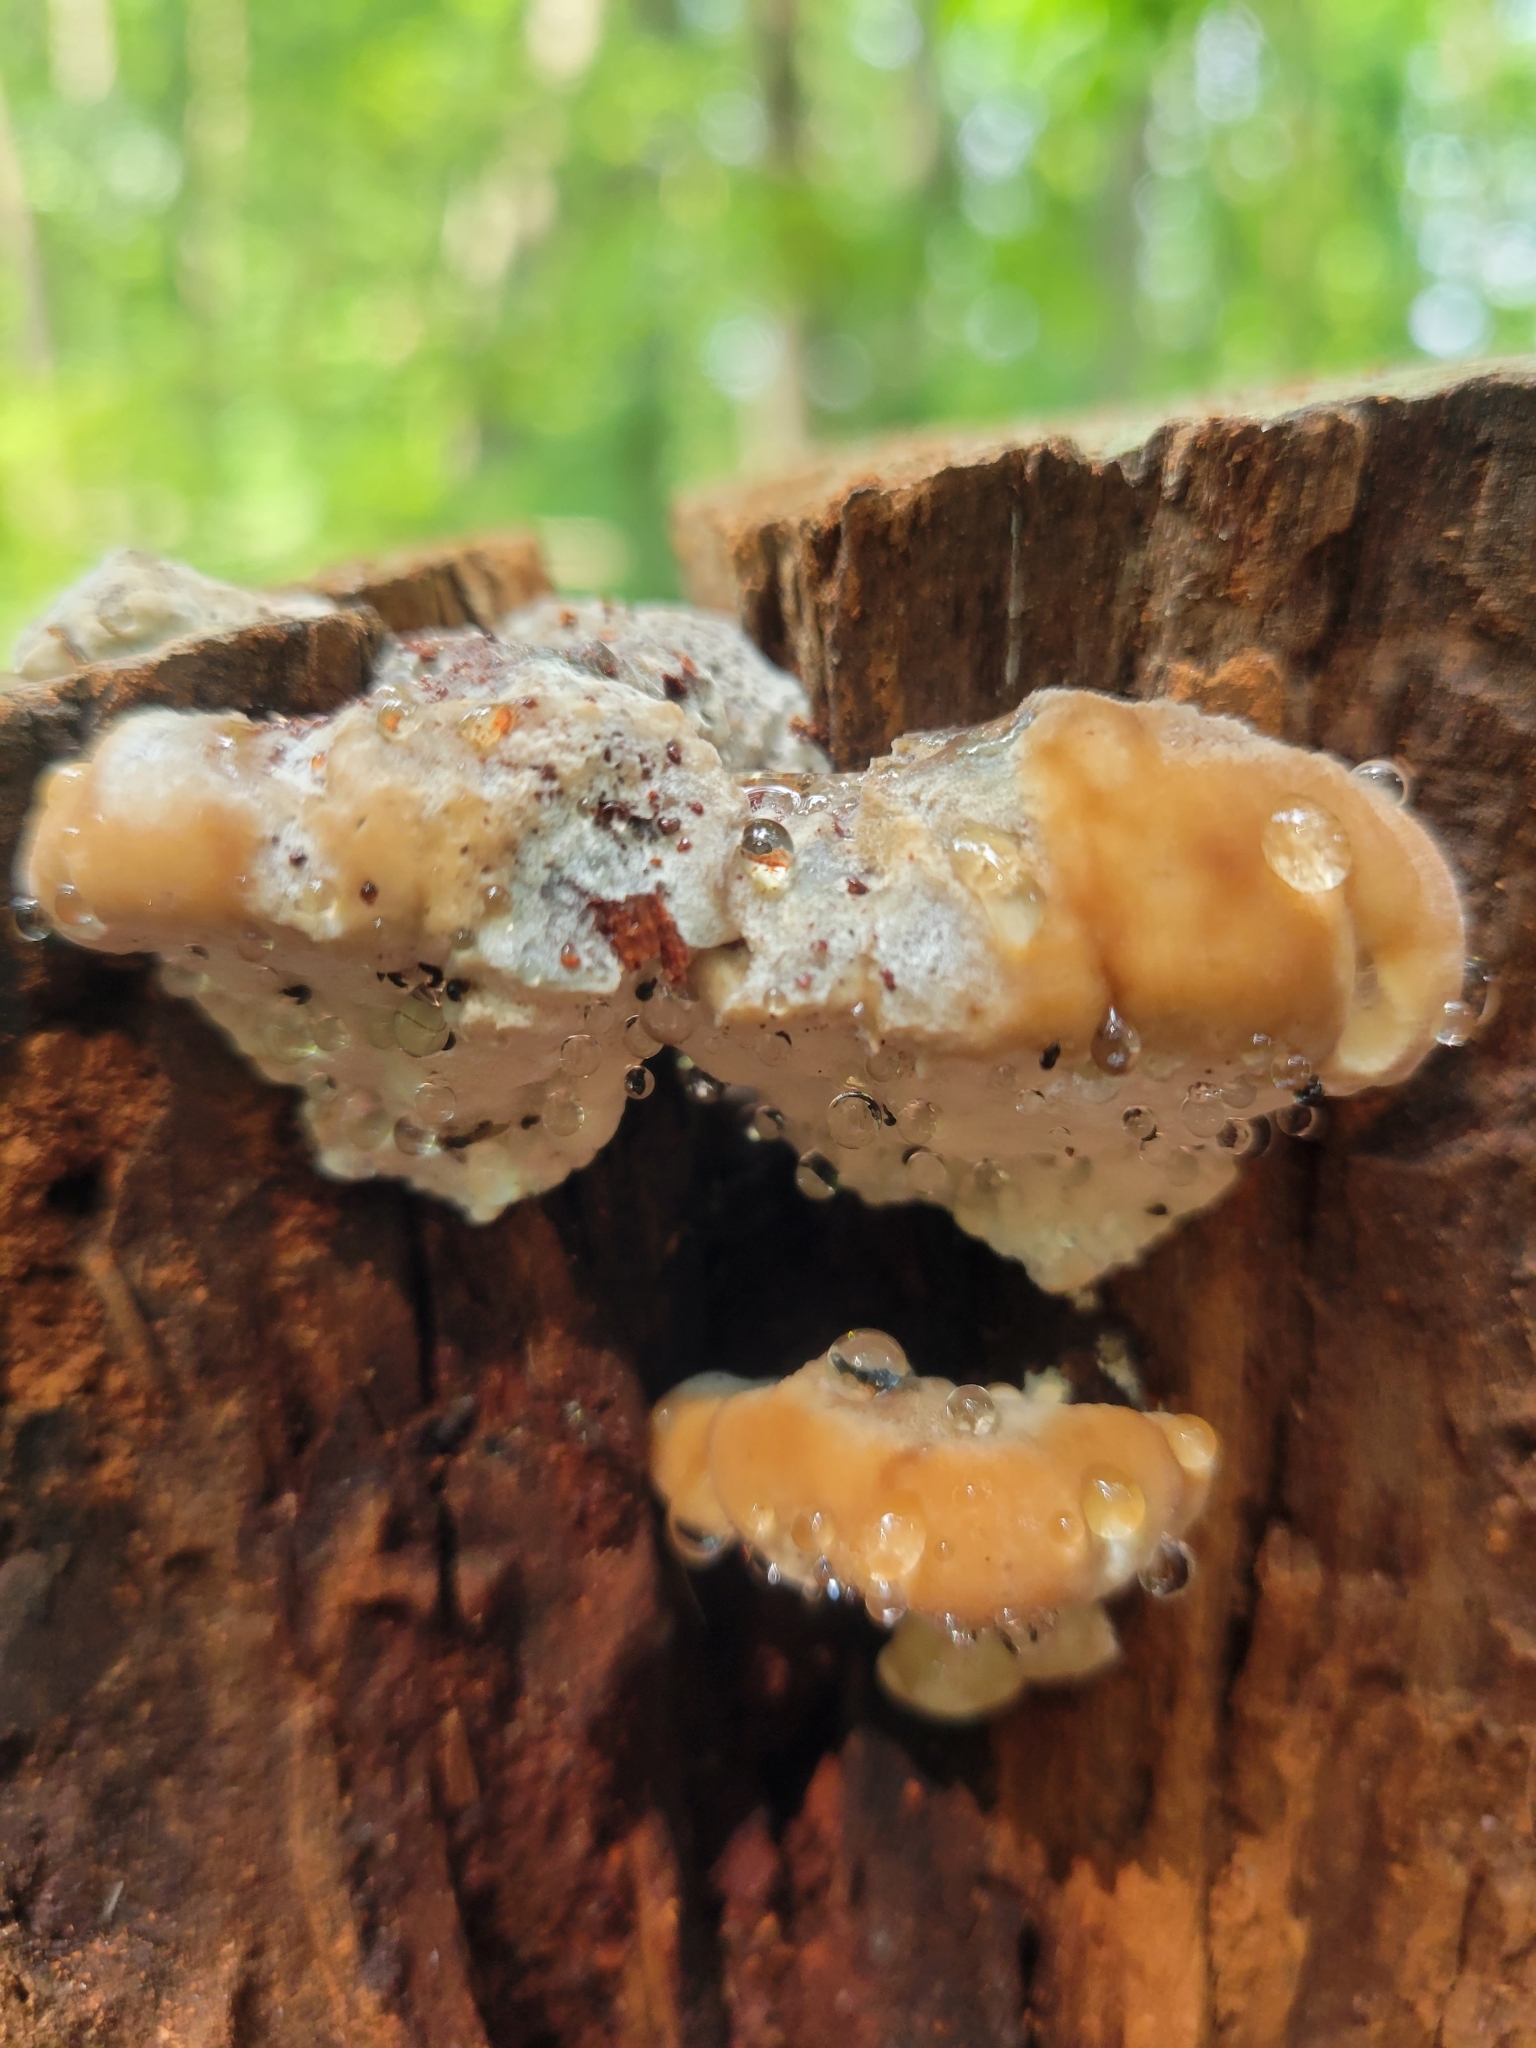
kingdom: Fungi
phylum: Basidiomycota
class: Agaricomycetes
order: Polyporales
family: Fomitopsidaceae
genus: Niveoporofomes
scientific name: Niveoporofomes spraguei
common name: Green cheese polypore
